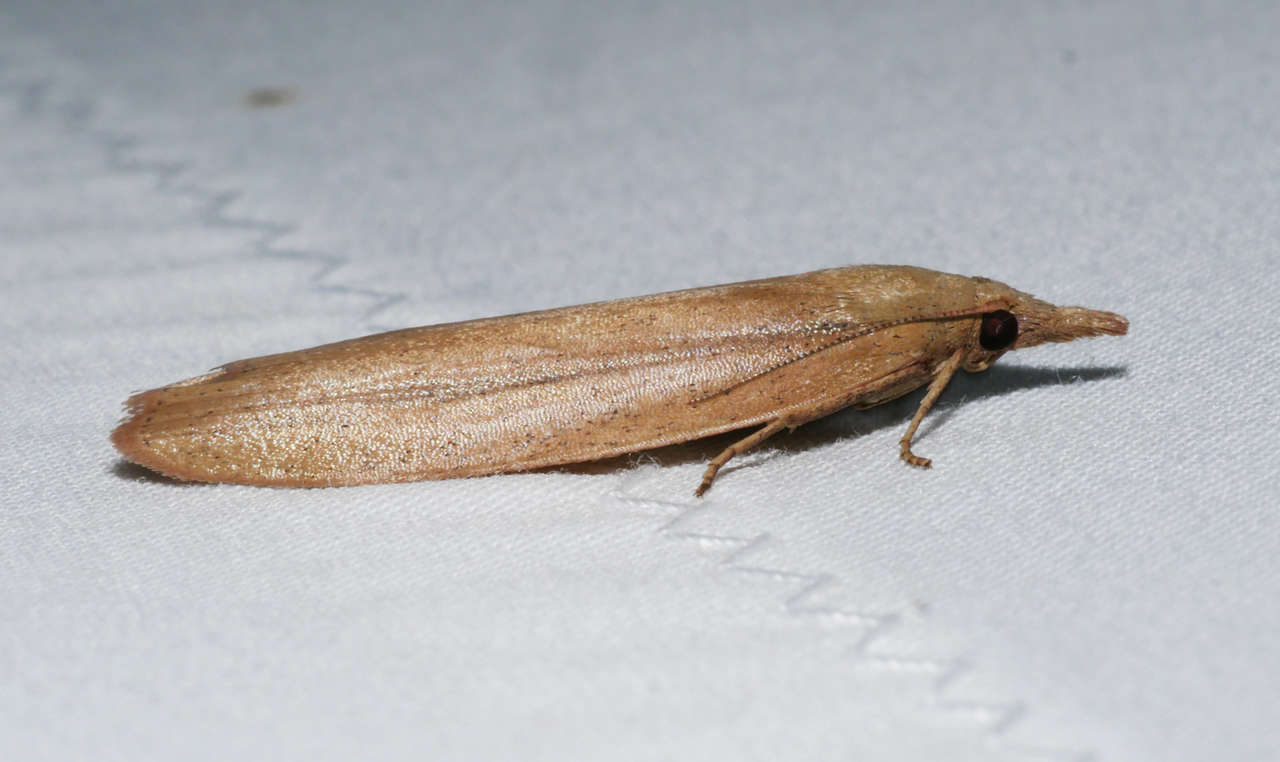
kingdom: Animalia
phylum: Arthropoda
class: Insecta
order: Lepidoptera
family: Pyralidae
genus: Meyriccia
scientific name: Meyriccia latro
